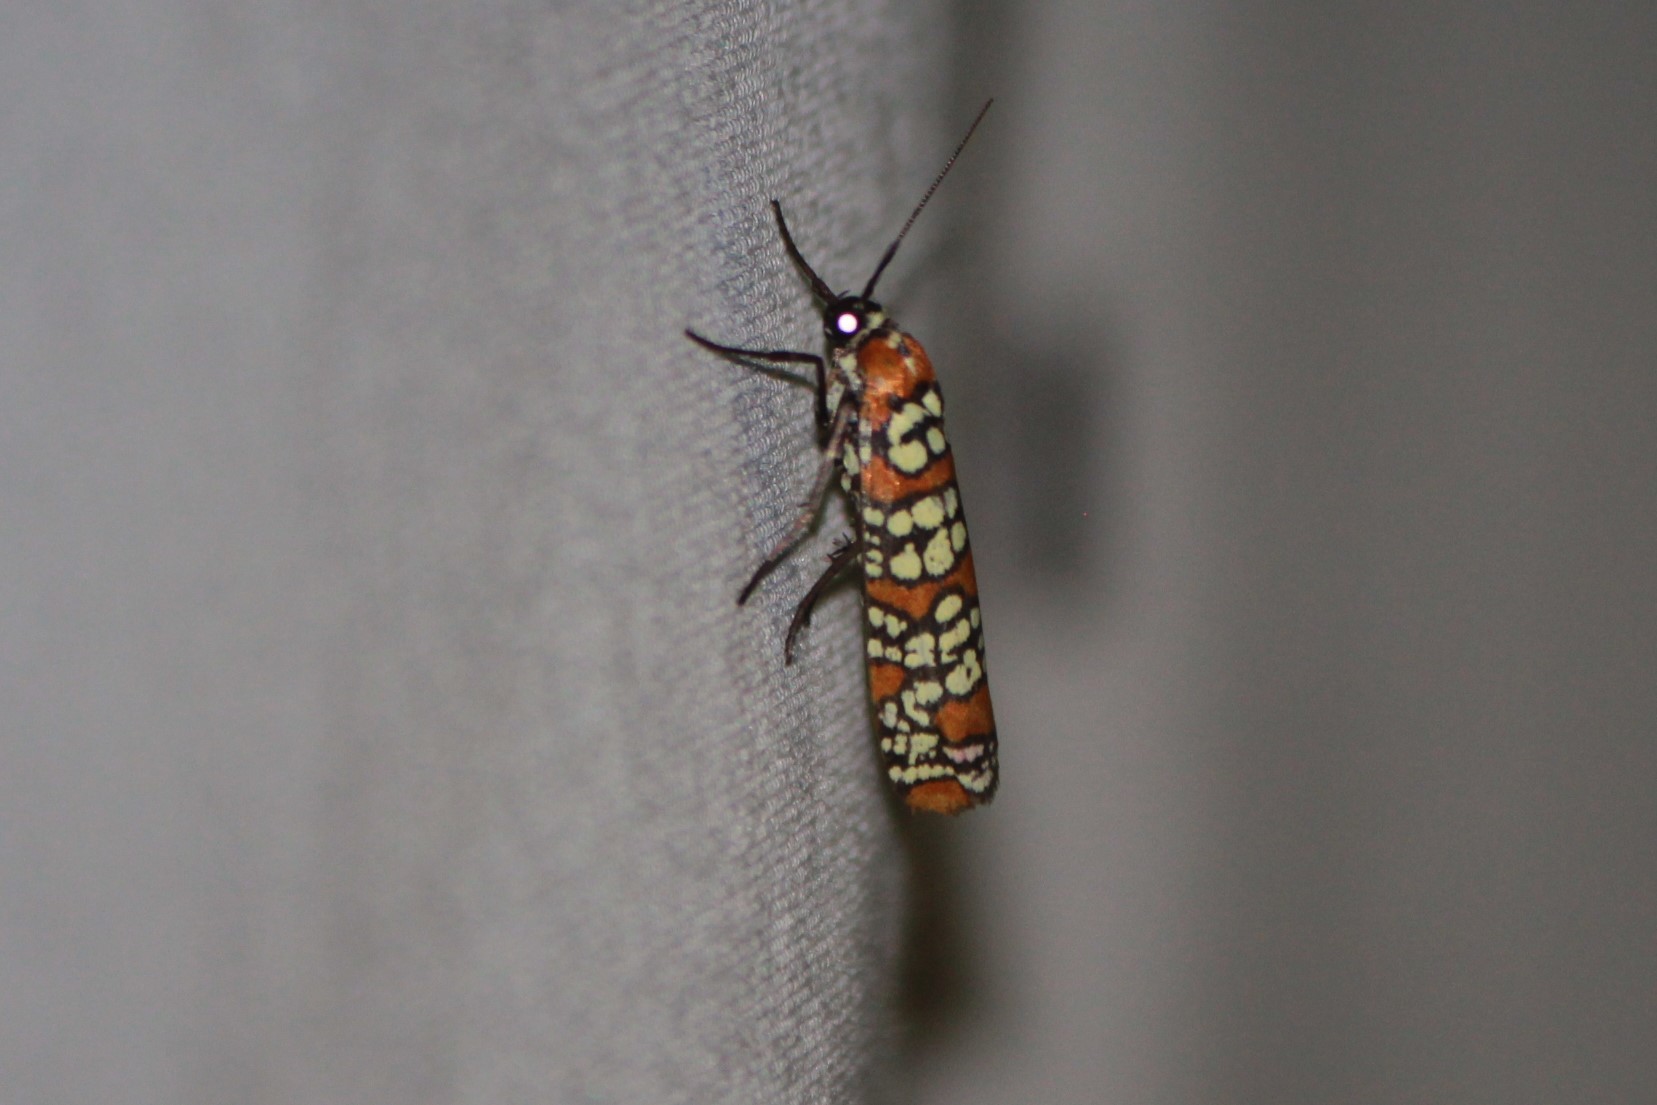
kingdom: Animalia
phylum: Arthropoda
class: Insecta
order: Lepidoptera
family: Attevidae
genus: Atteva
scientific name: Atteva punctella
